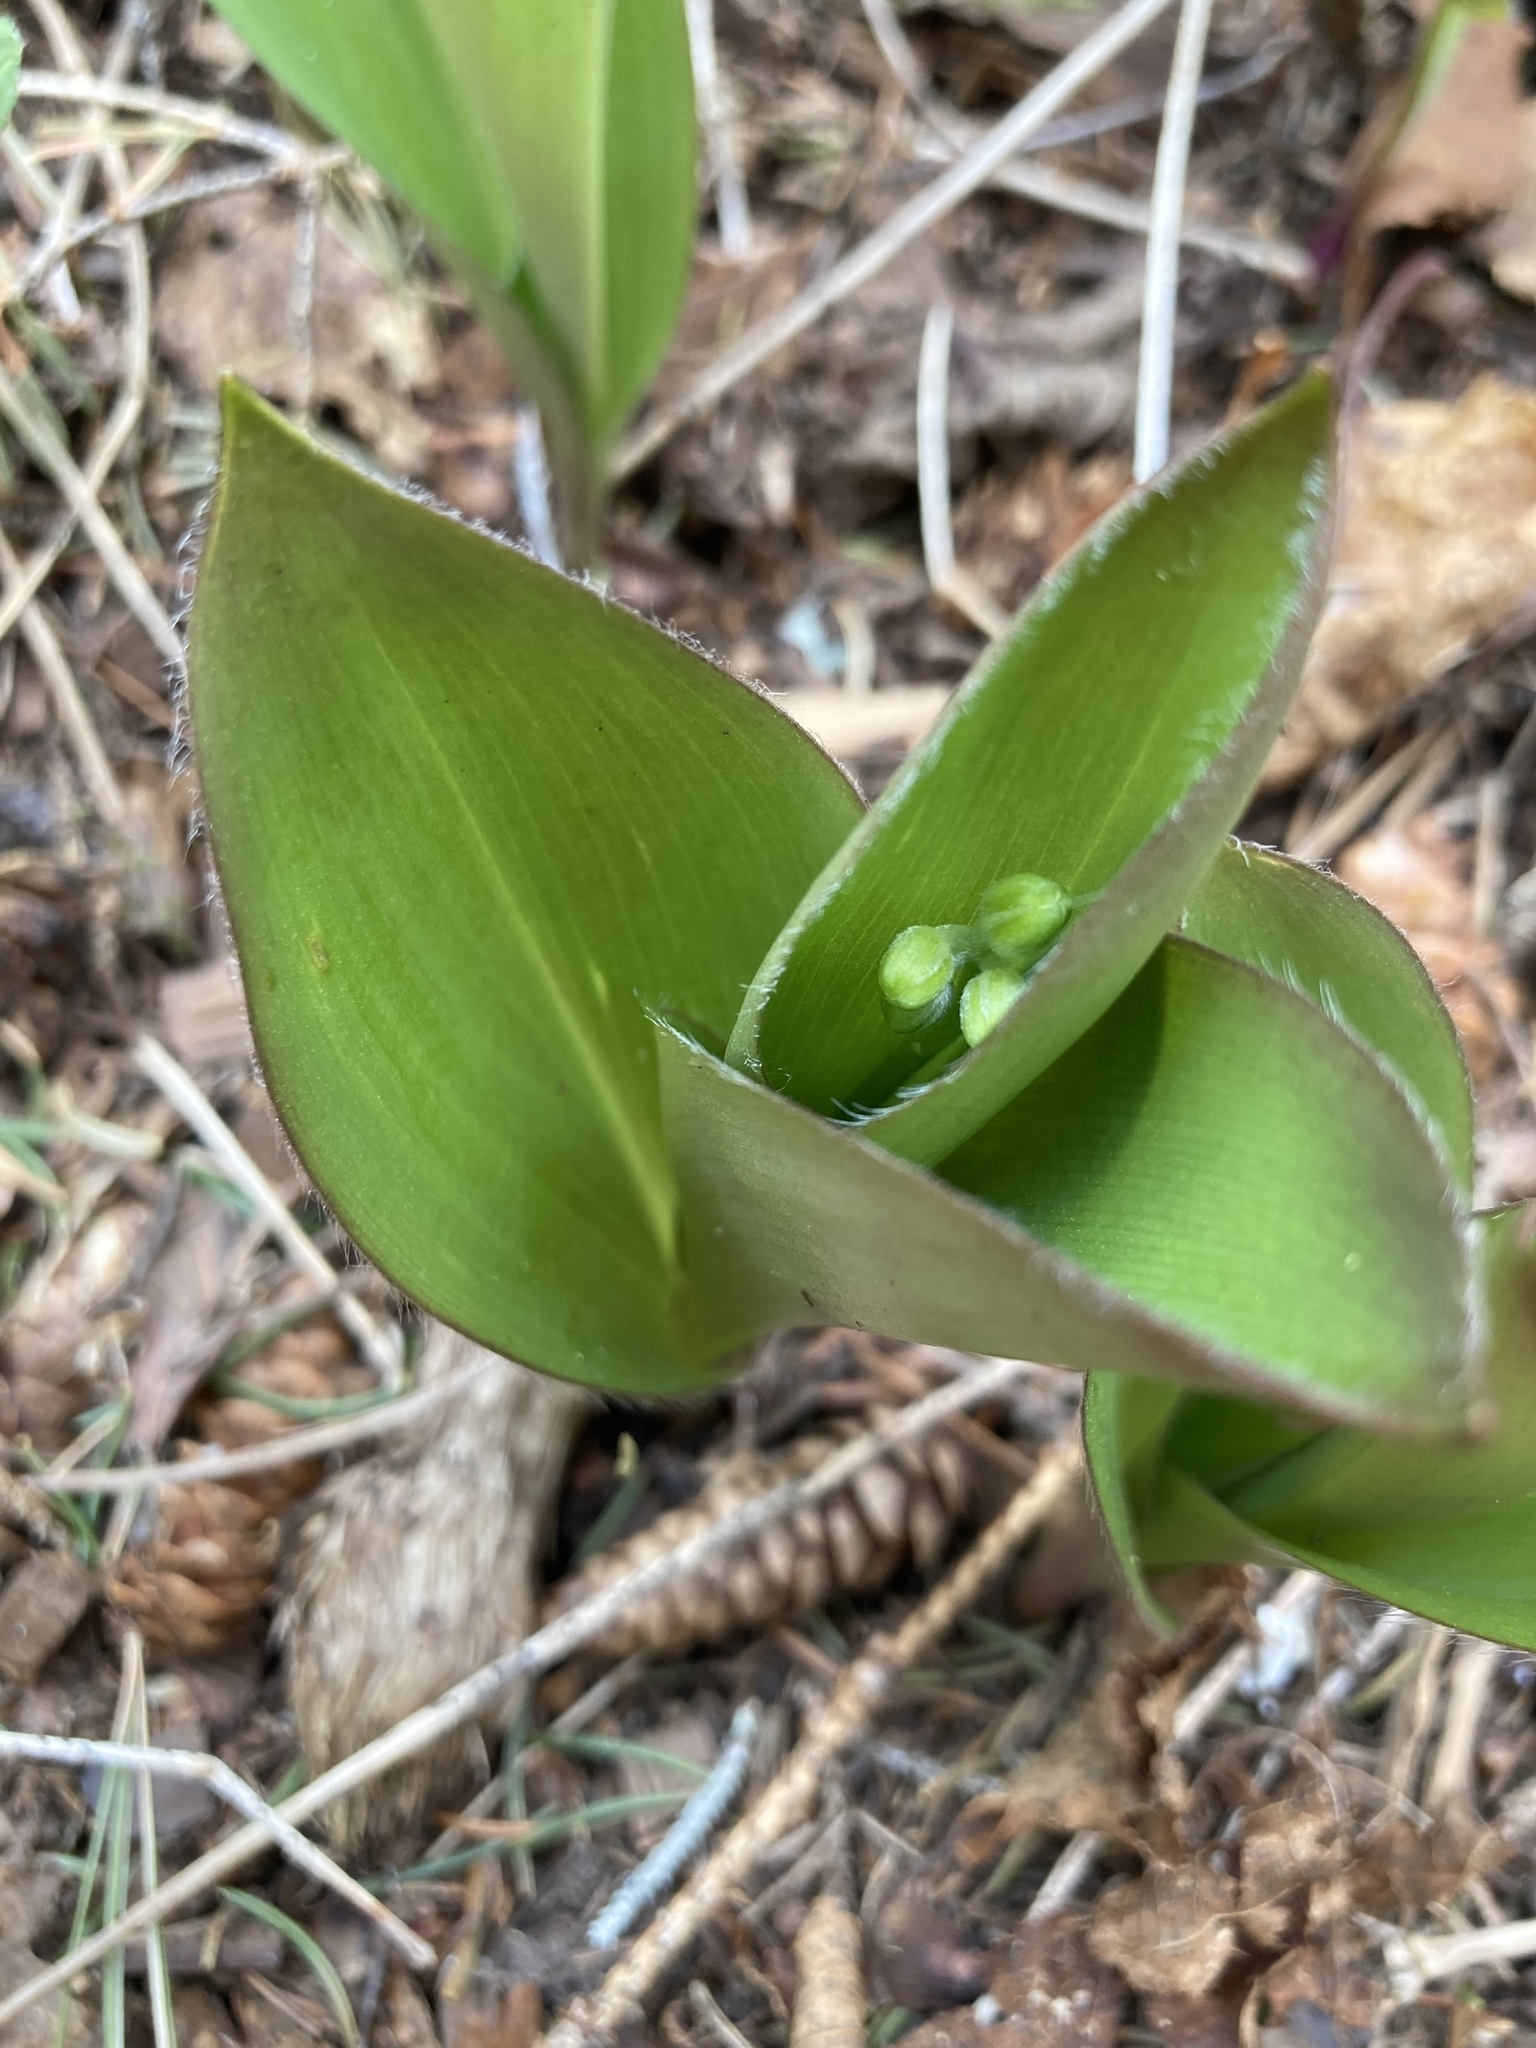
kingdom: Plantae
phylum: Tracheophyta
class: Liliopsida
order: Liliales
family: Liliaceae
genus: Clintonia
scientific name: Clintonia borealis
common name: Yellow clintonia
